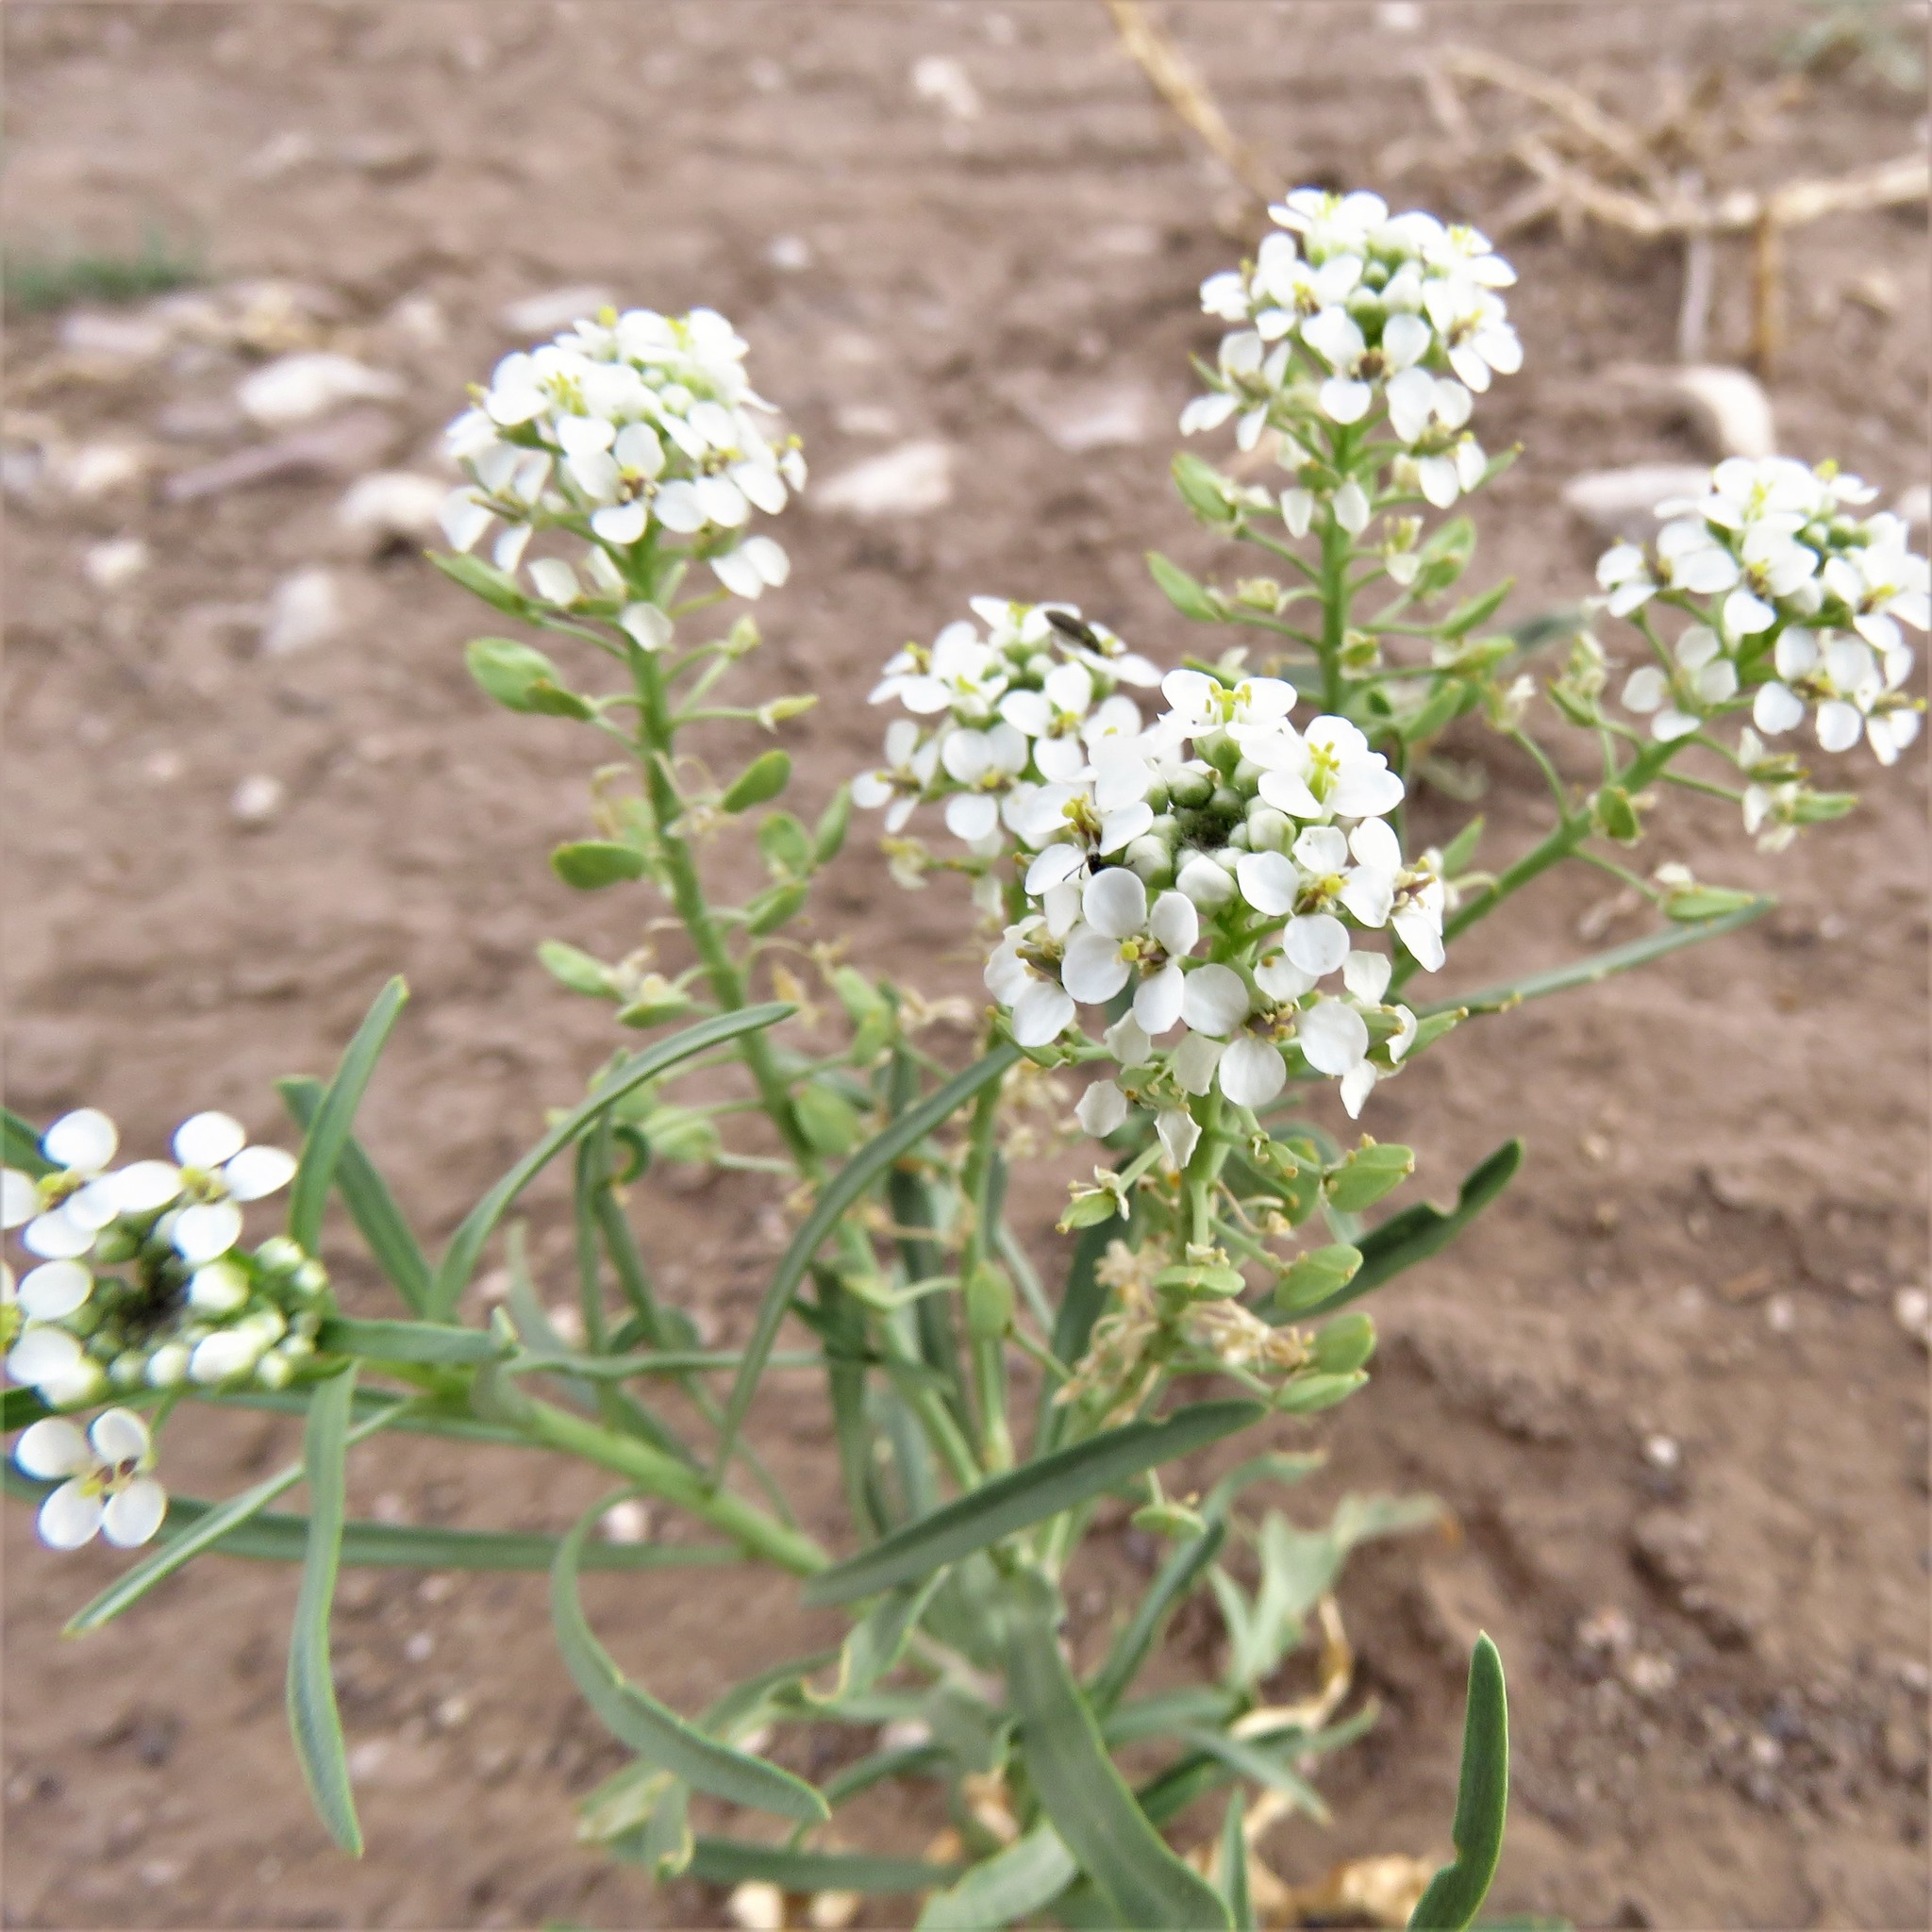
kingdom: Plantae
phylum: Tracheophyta
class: Magnoliopsida
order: Brassicales
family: Brassicaceae
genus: Lepidium
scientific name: Lepidium alyssoides
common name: Mesa pepperweed
